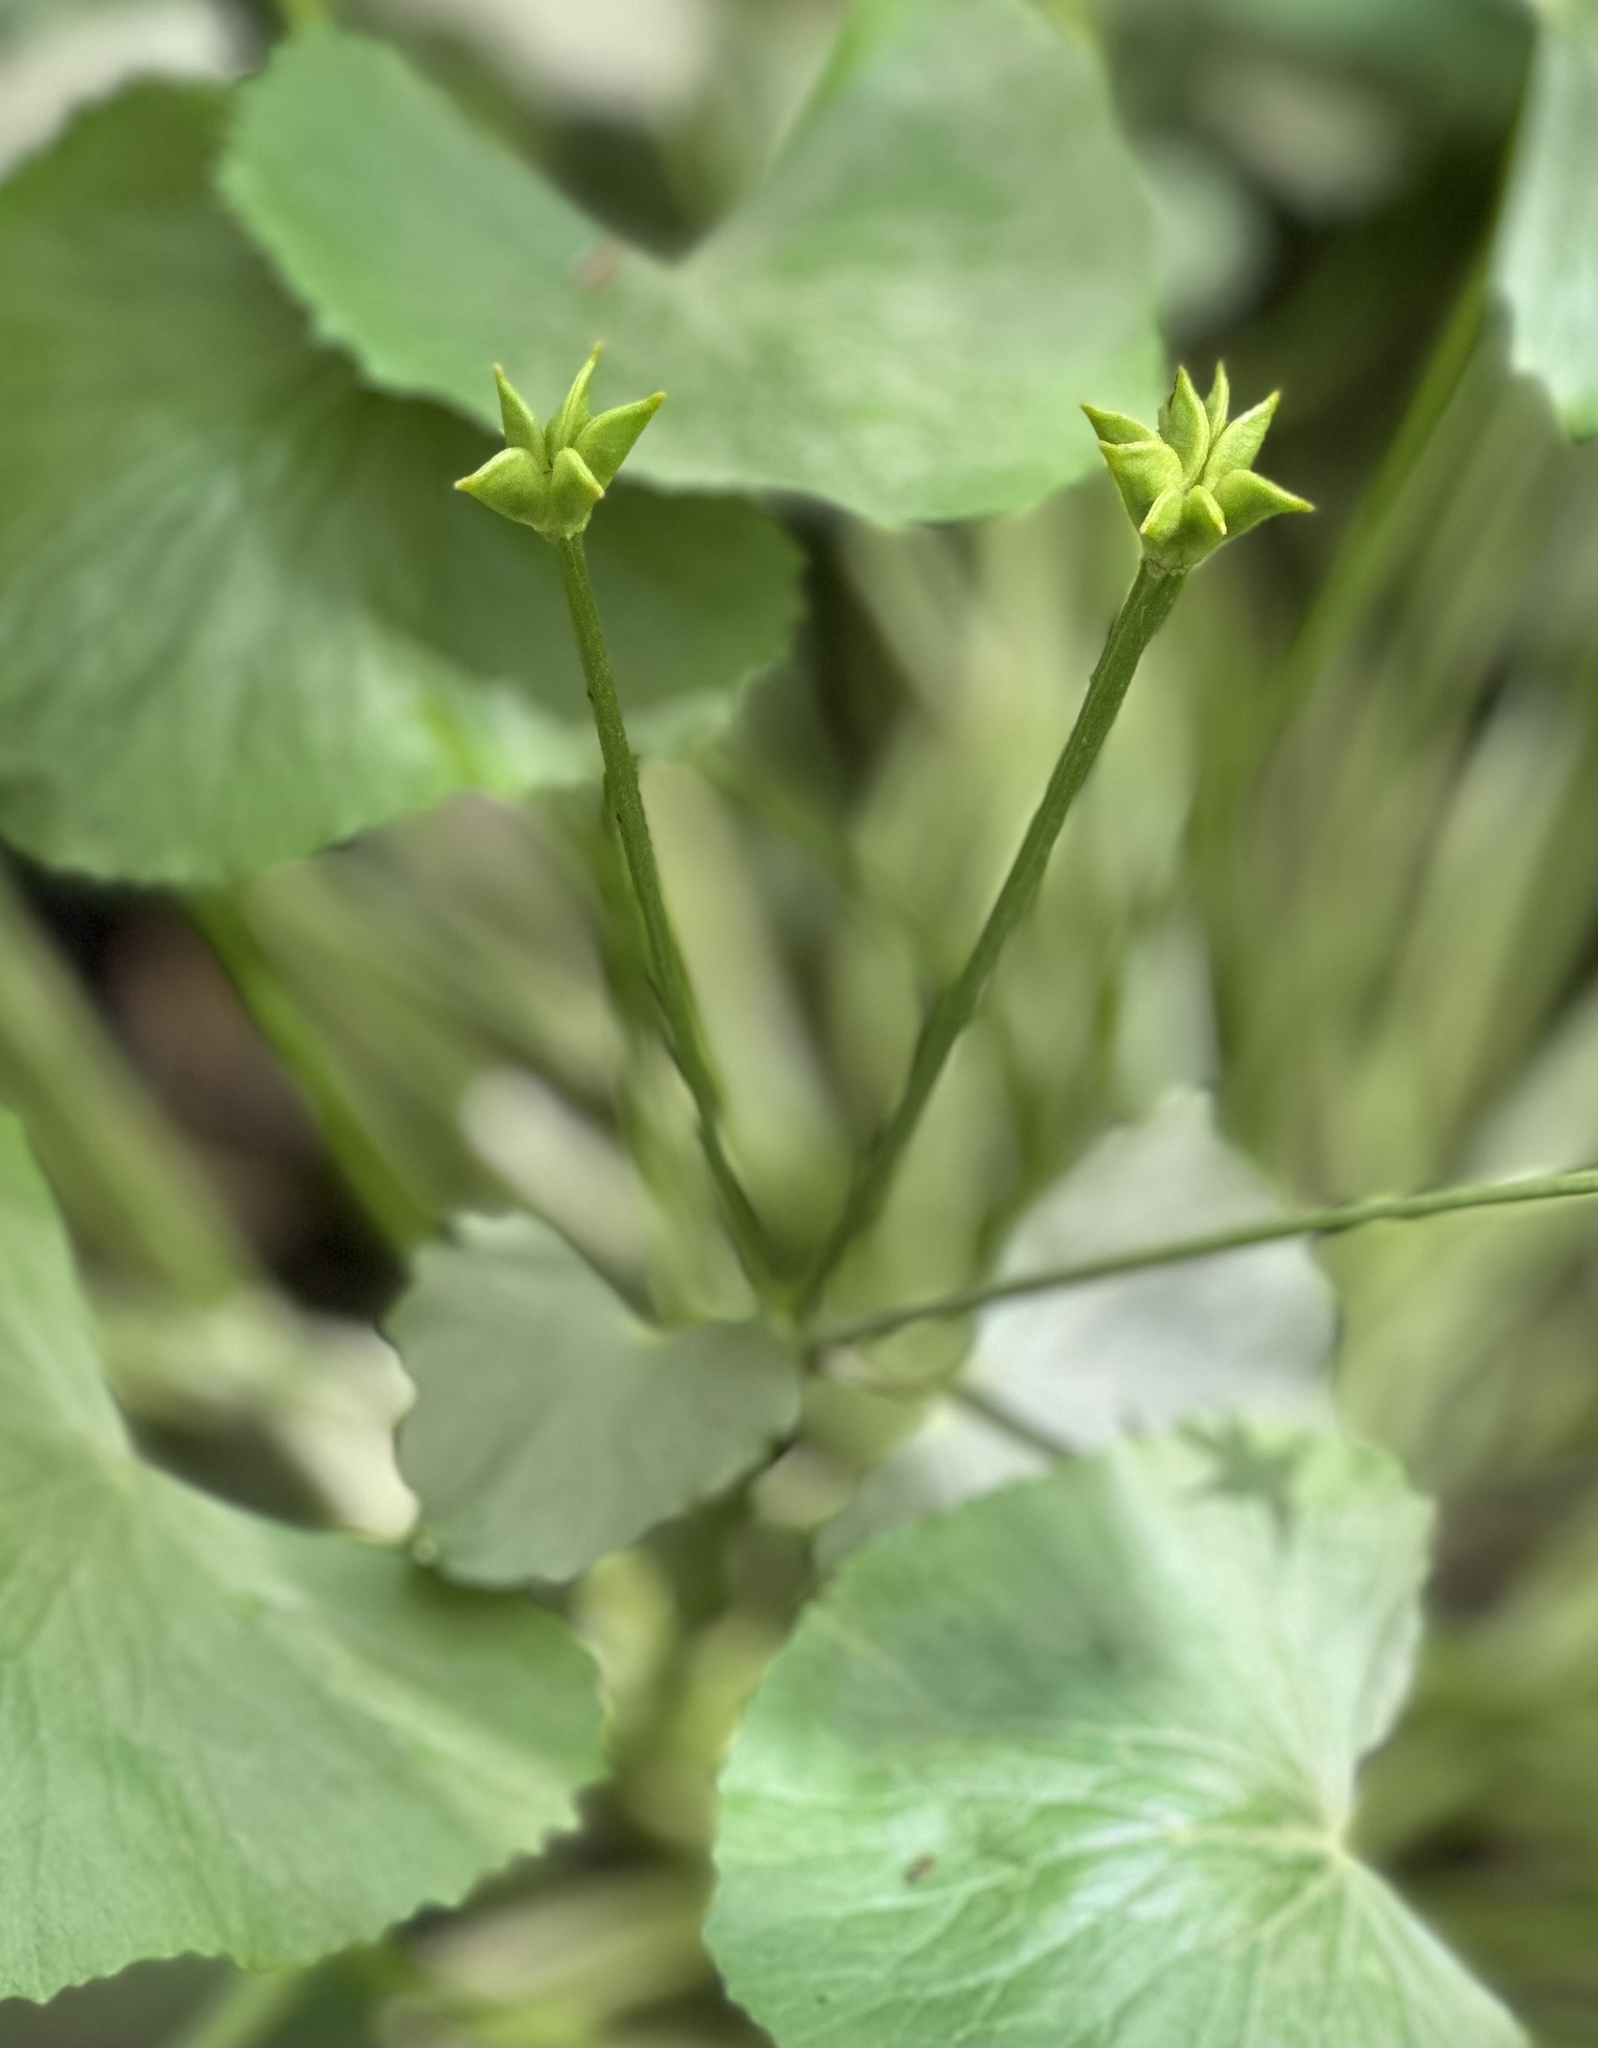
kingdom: Plantae
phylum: Tracheophyta
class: Magnoliopsida
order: Ranunculales
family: Ranunculaceae
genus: Caltha
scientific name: Caltha palustris
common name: Marsh marigold
